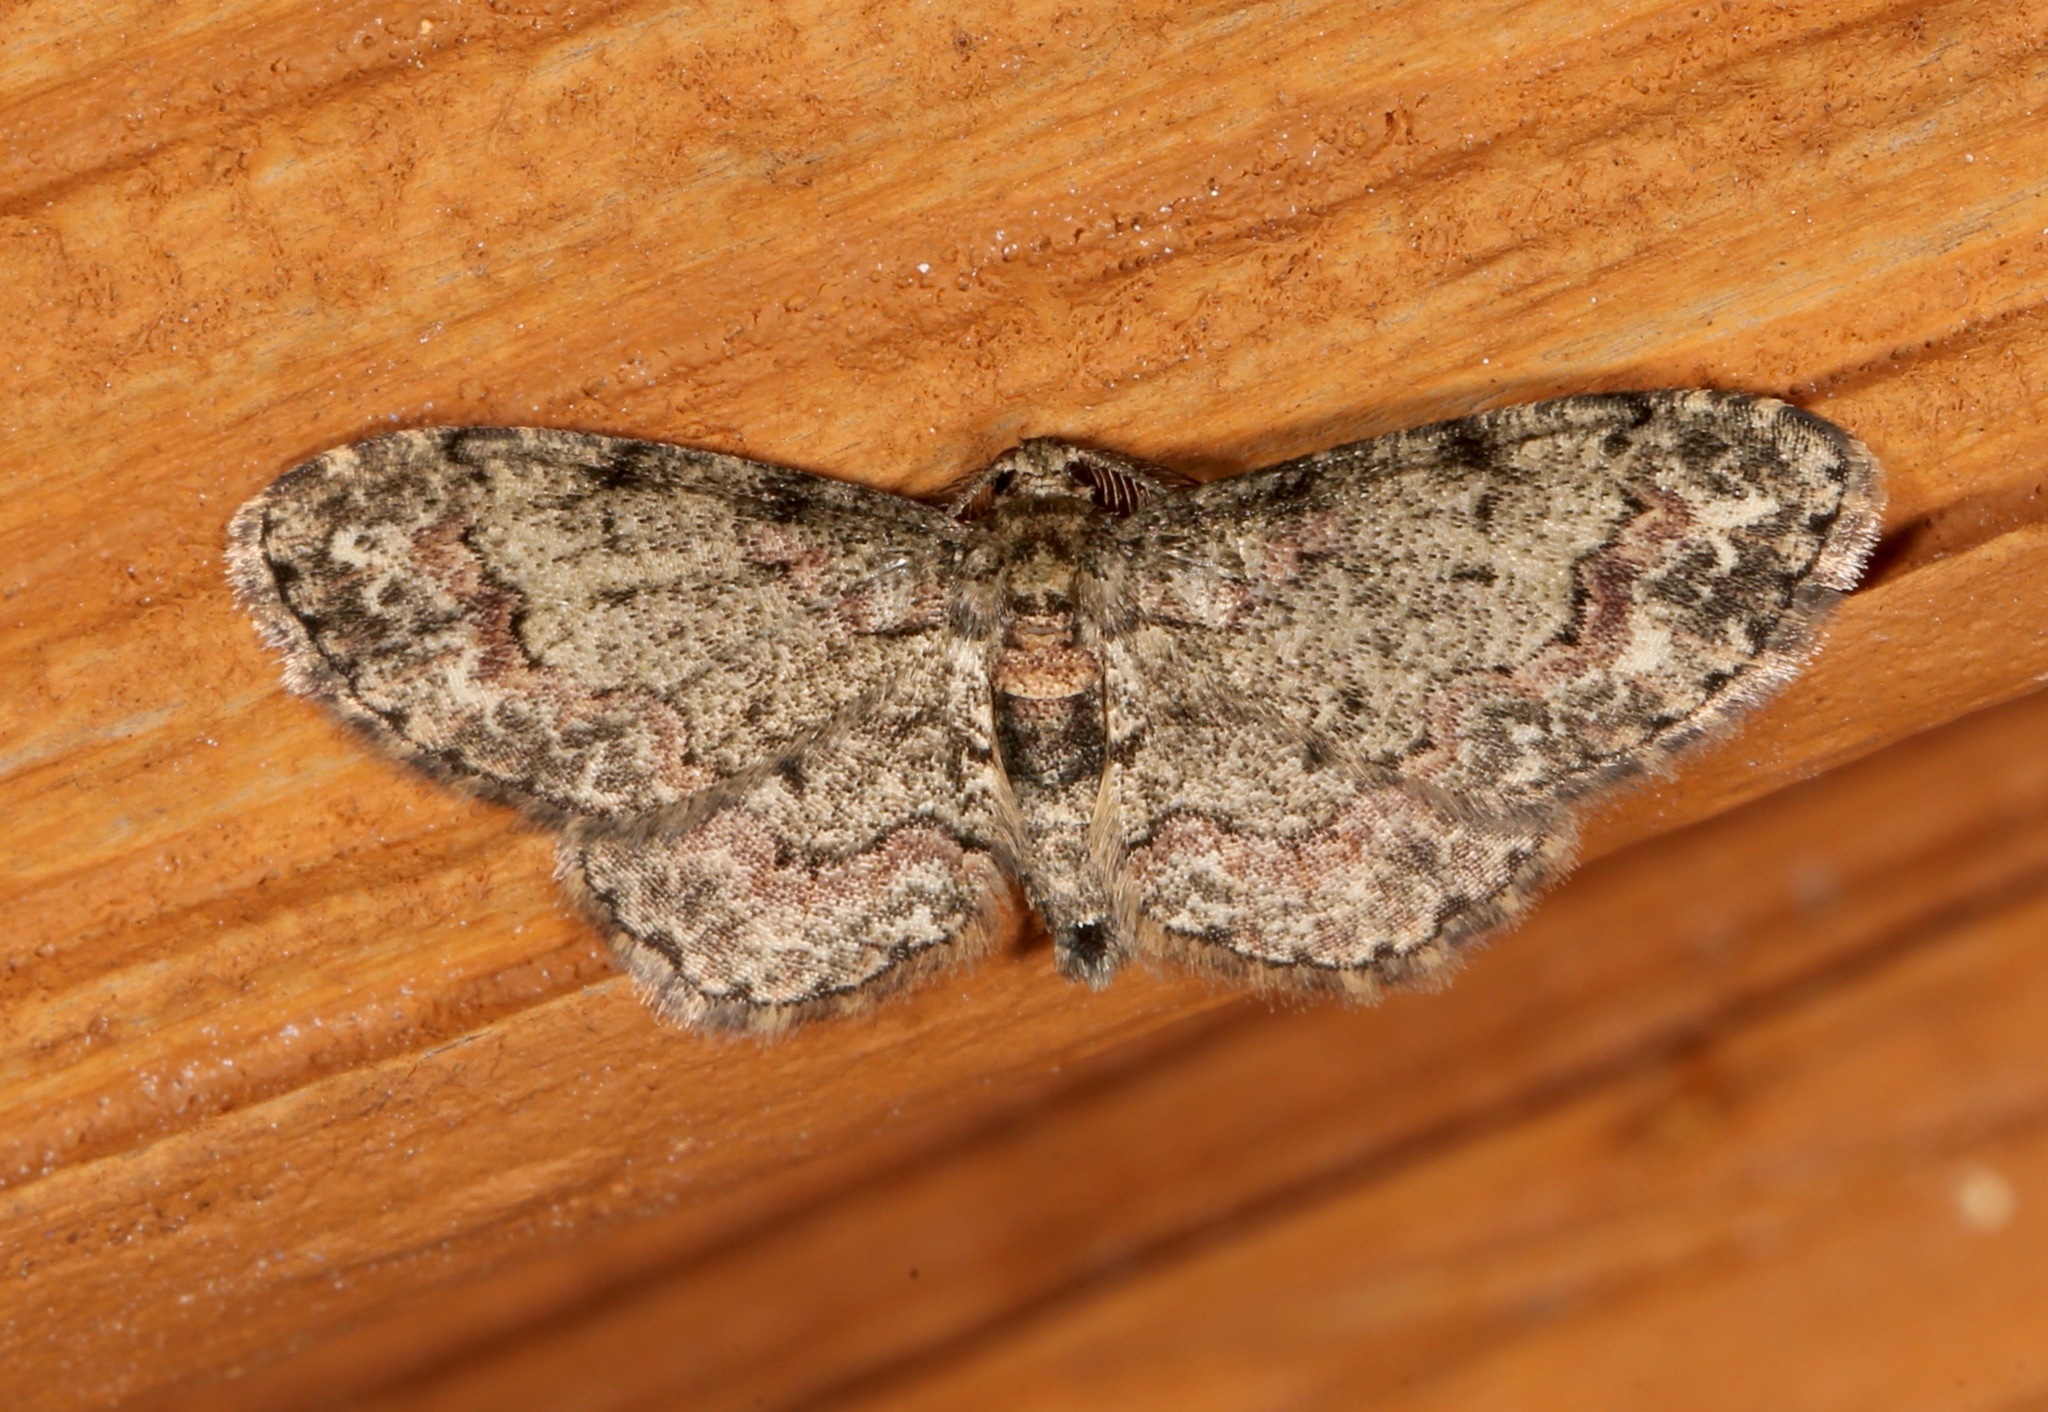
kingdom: Animalia
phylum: Arthropoda
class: Insecta
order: Lepidoptera
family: Geometridae
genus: Glenoides
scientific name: Glenoides texanaria
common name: Texas gray
